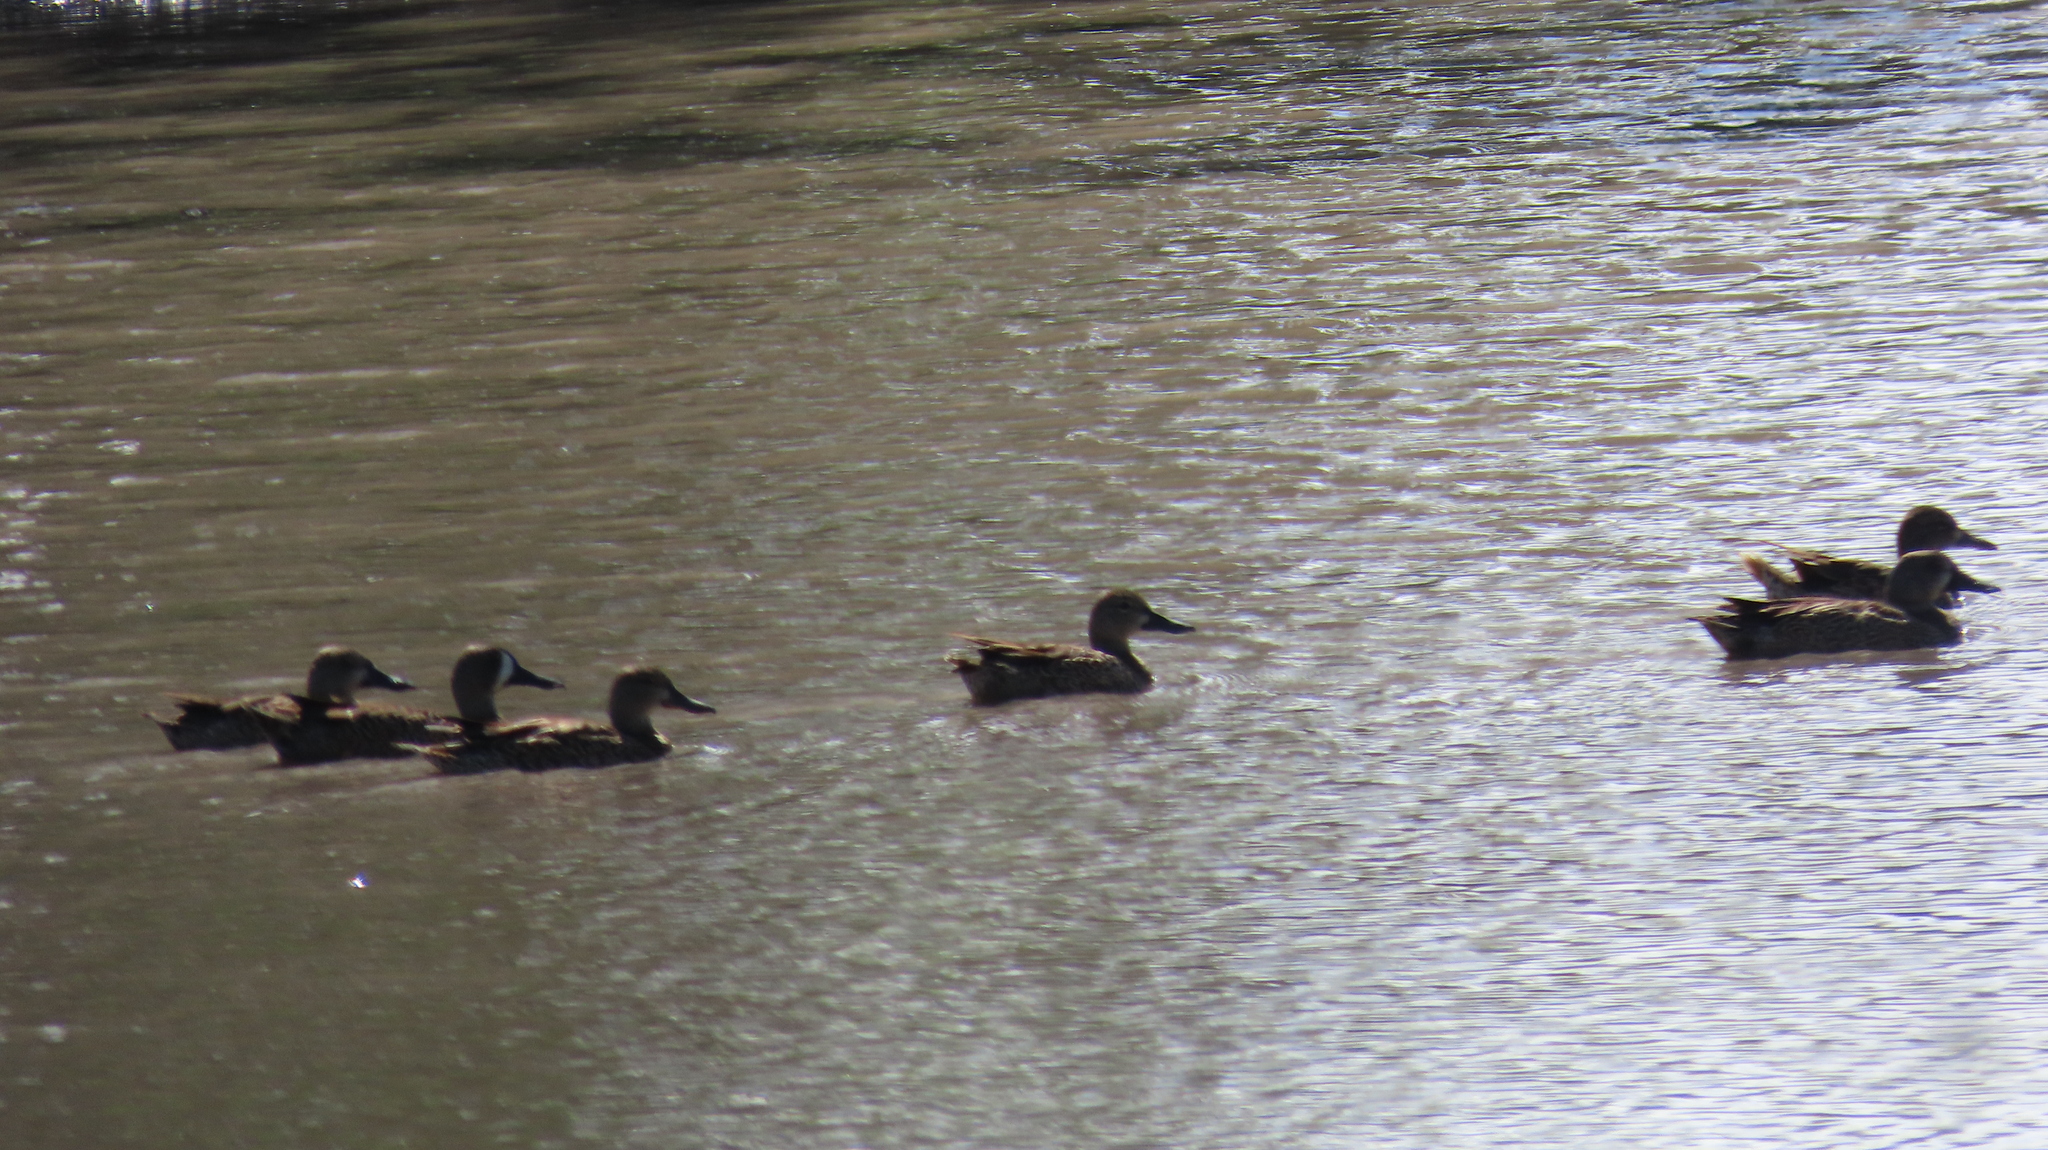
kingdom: Animalia
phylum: Chordata
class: Aves
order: Anseriformes
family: Anatidae
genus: Spatula
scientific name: Spatula discors
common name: Blue-winged teal
